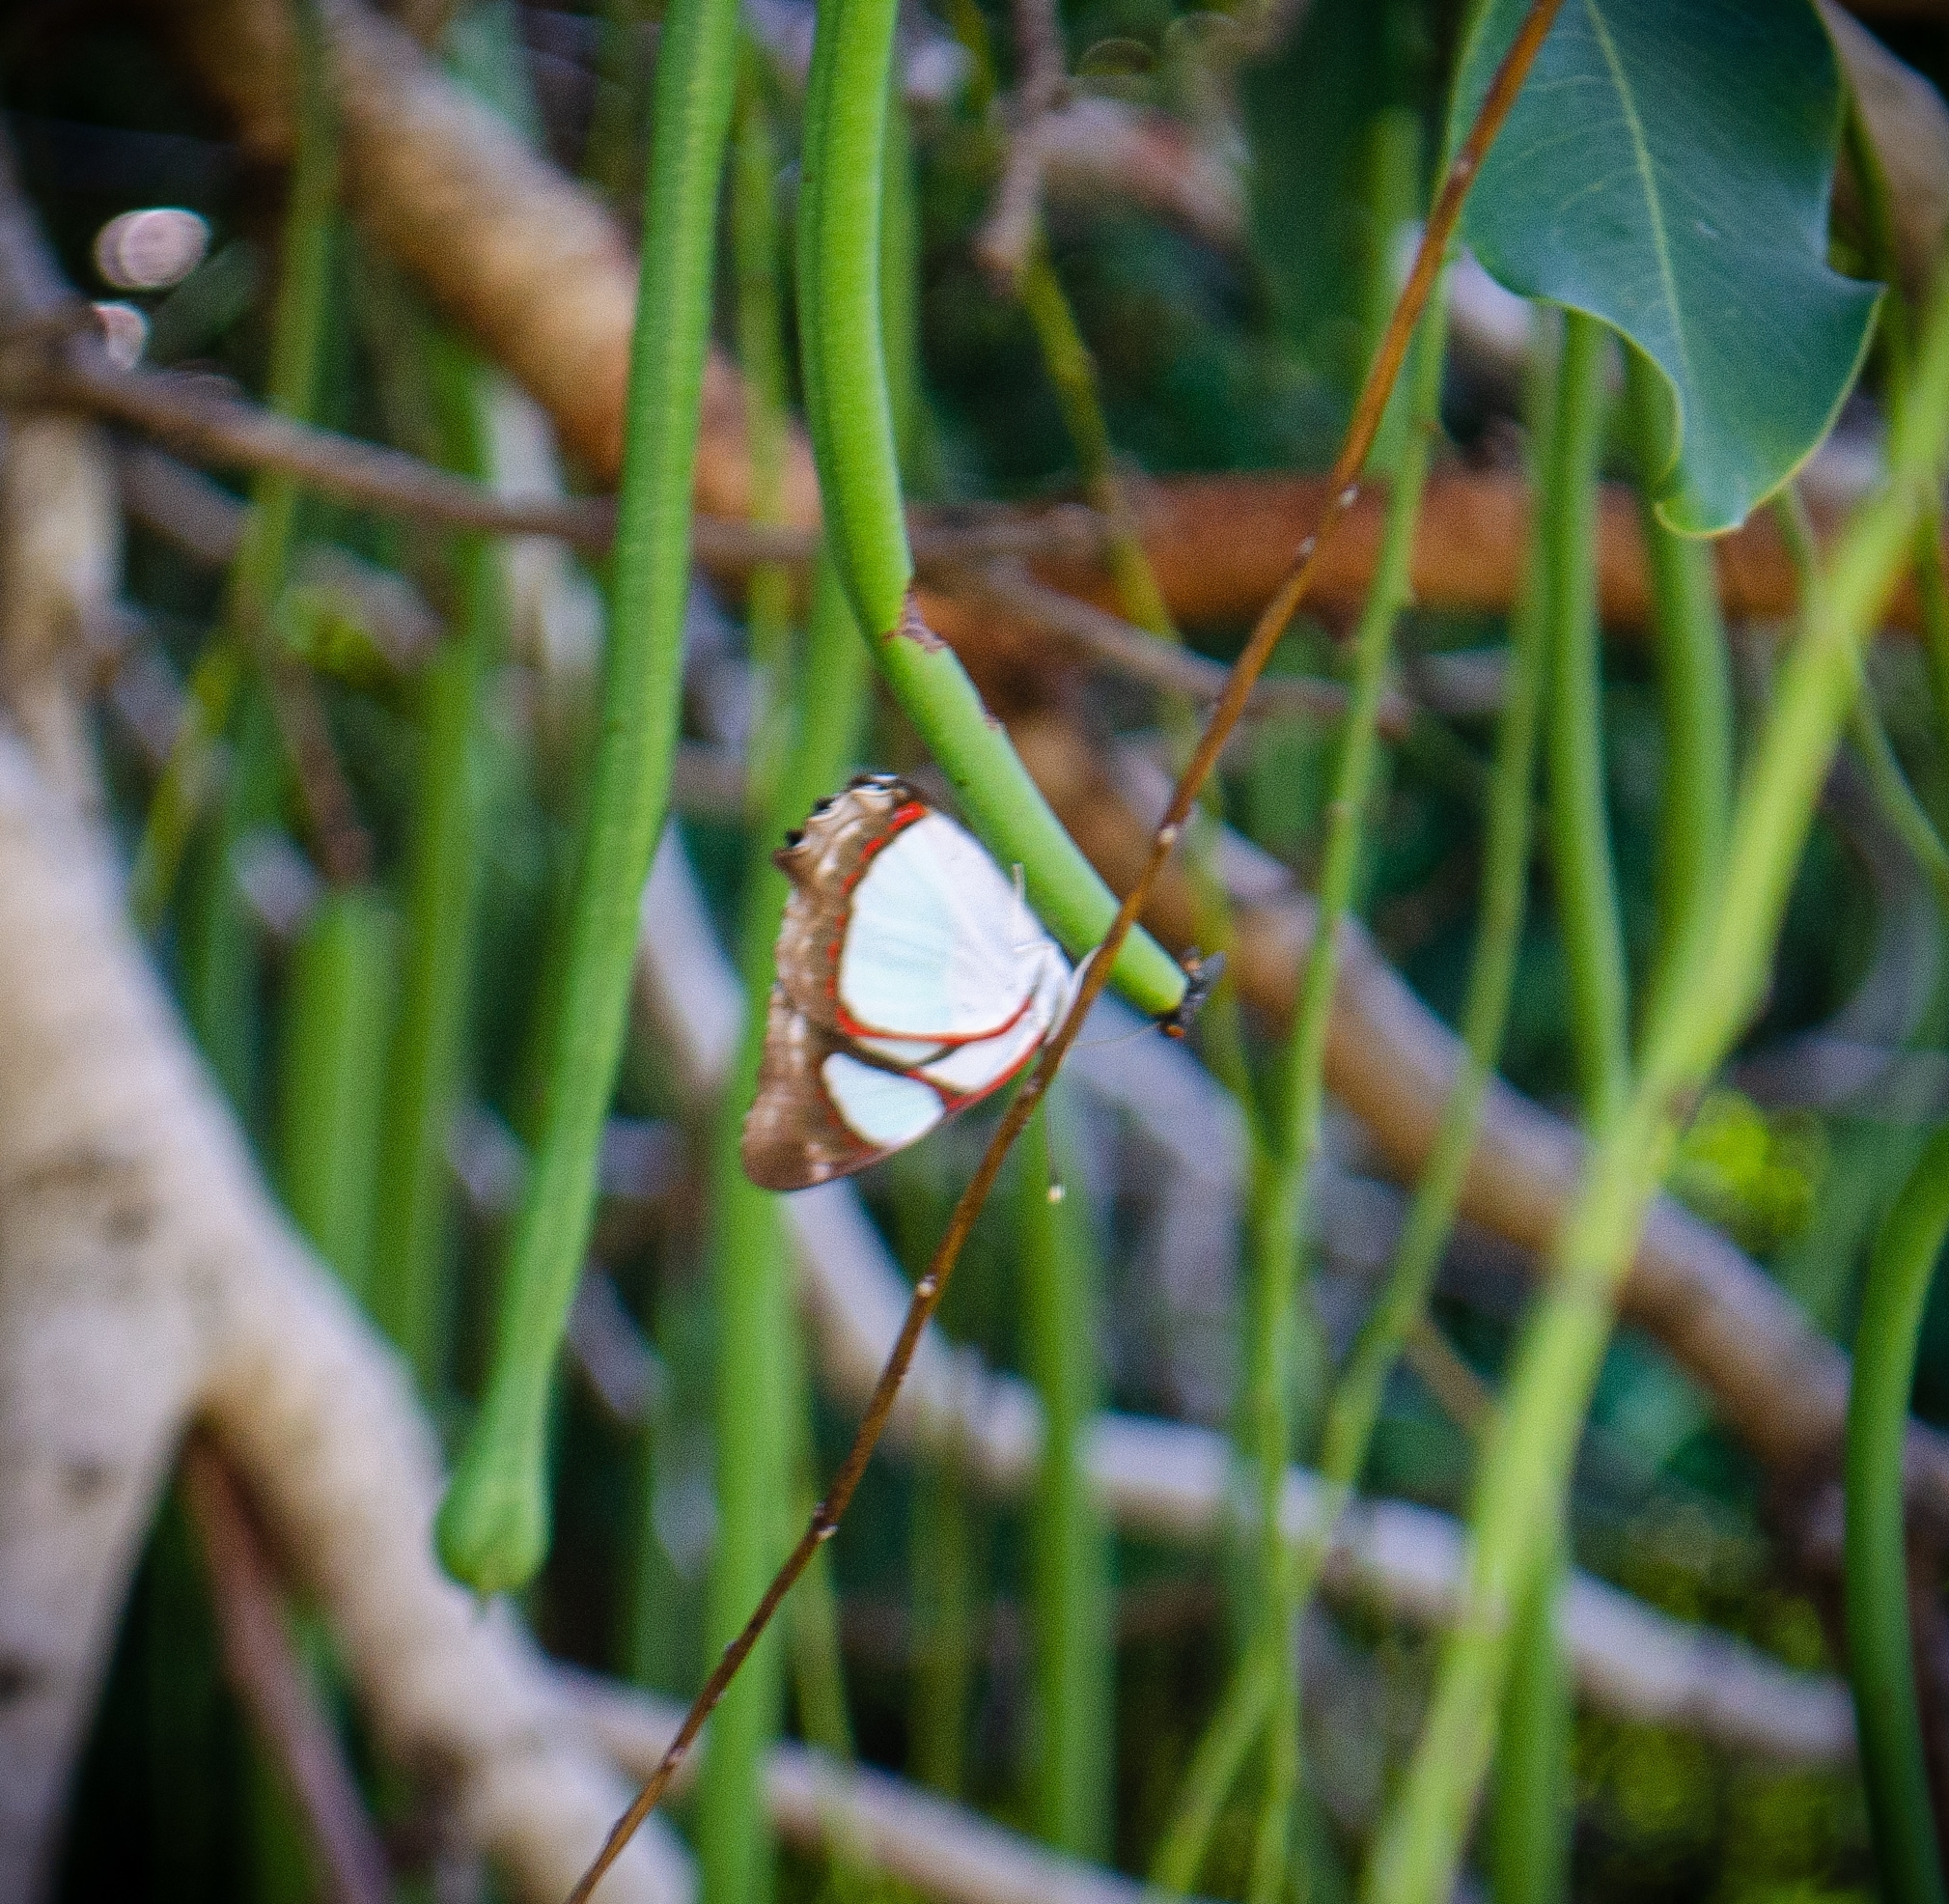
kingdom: Animalia
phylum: Arthropoda
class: Insecta
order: Lepidoptera
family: Nymphalidae
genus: Pyrrhogyra
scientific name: Pyrrhogyra neaerea
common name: Leading red-ring
